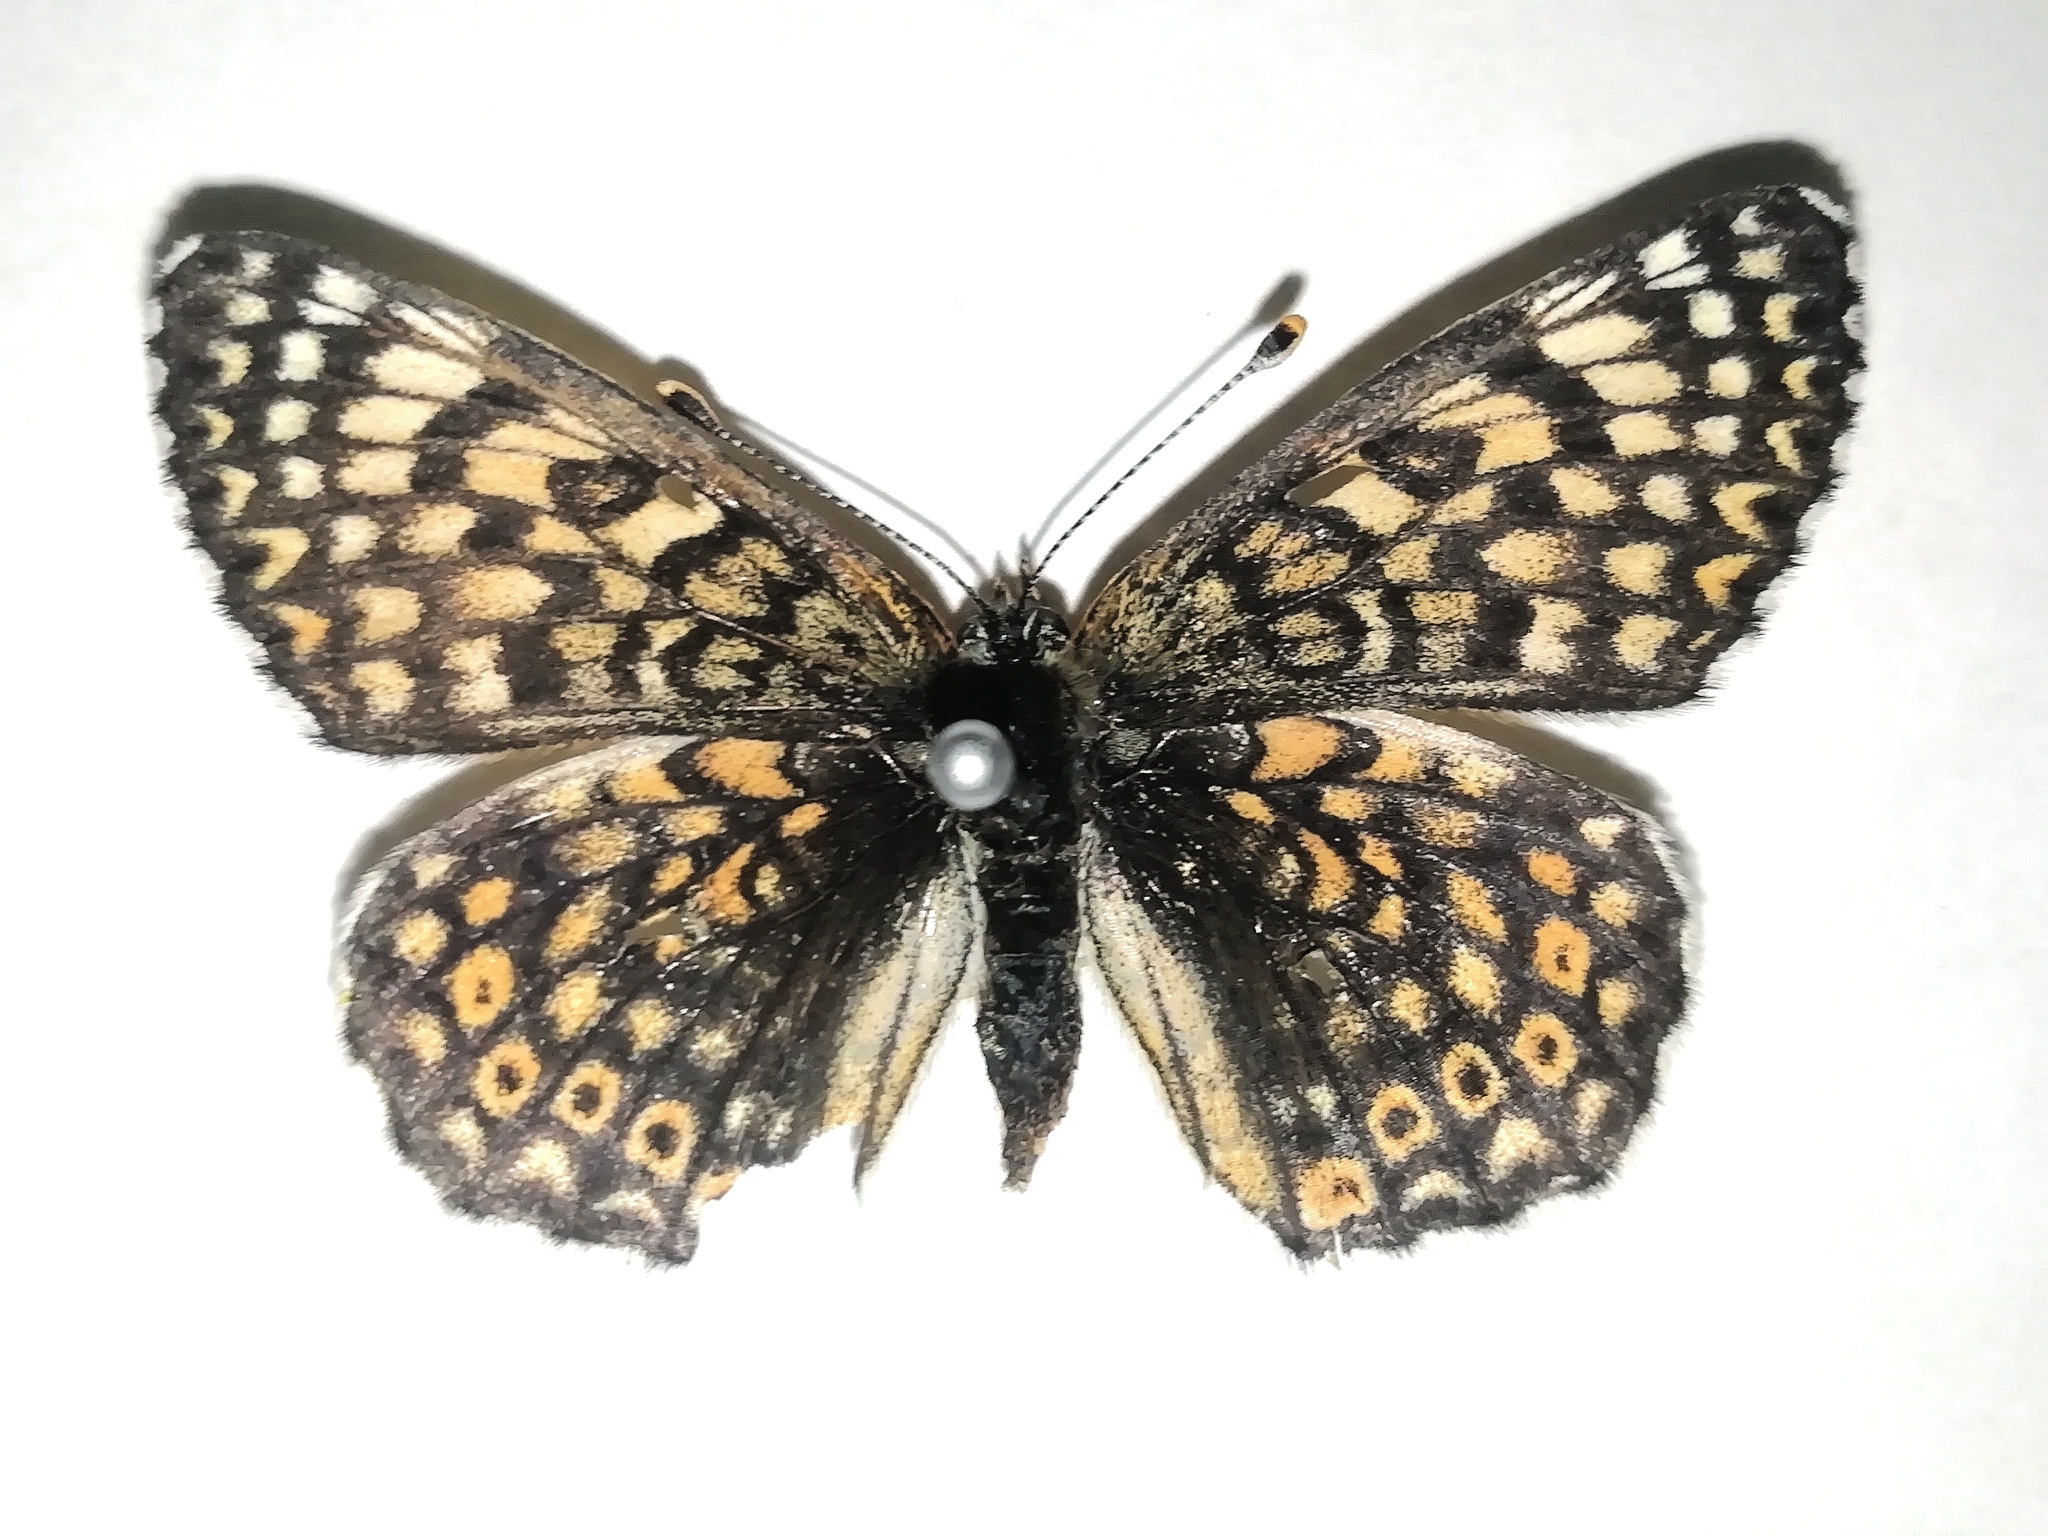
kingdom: Animalia
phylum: Arthropoda
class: Insecta
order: Lepidoptera
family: Nymphalidae
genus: Melitaea
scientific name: Melitaea cinxia
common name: Glanville fritillary
